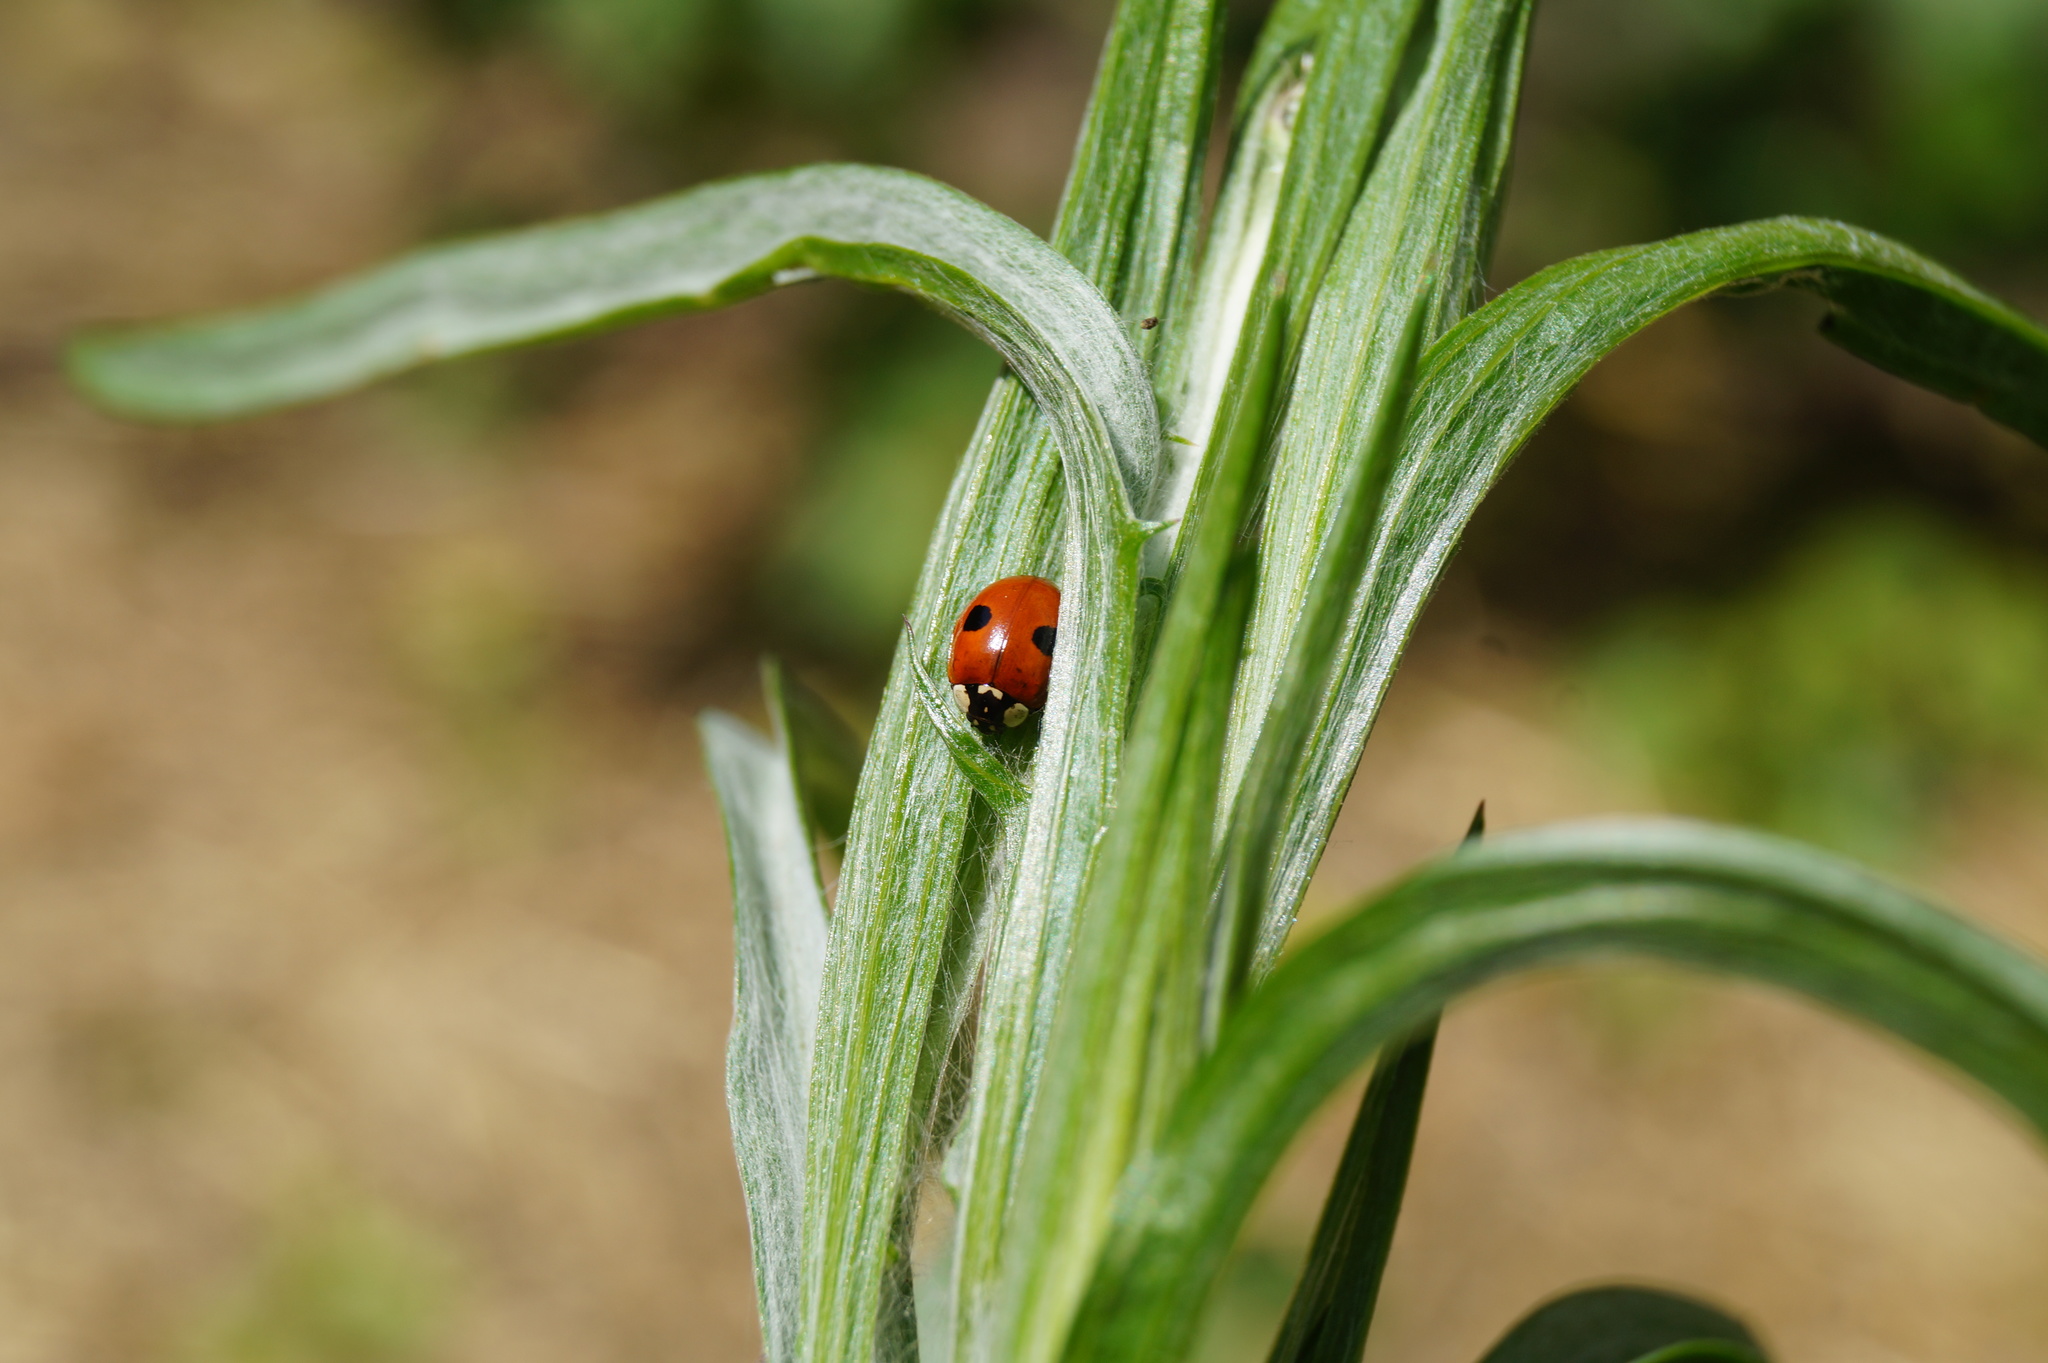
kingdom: Animalia
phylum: Arthropoda
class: Insecta
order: Coleoptera
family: Coccinellidae
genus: Adalia
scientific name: Adalia bipunctata
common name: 2-spot ladybird
